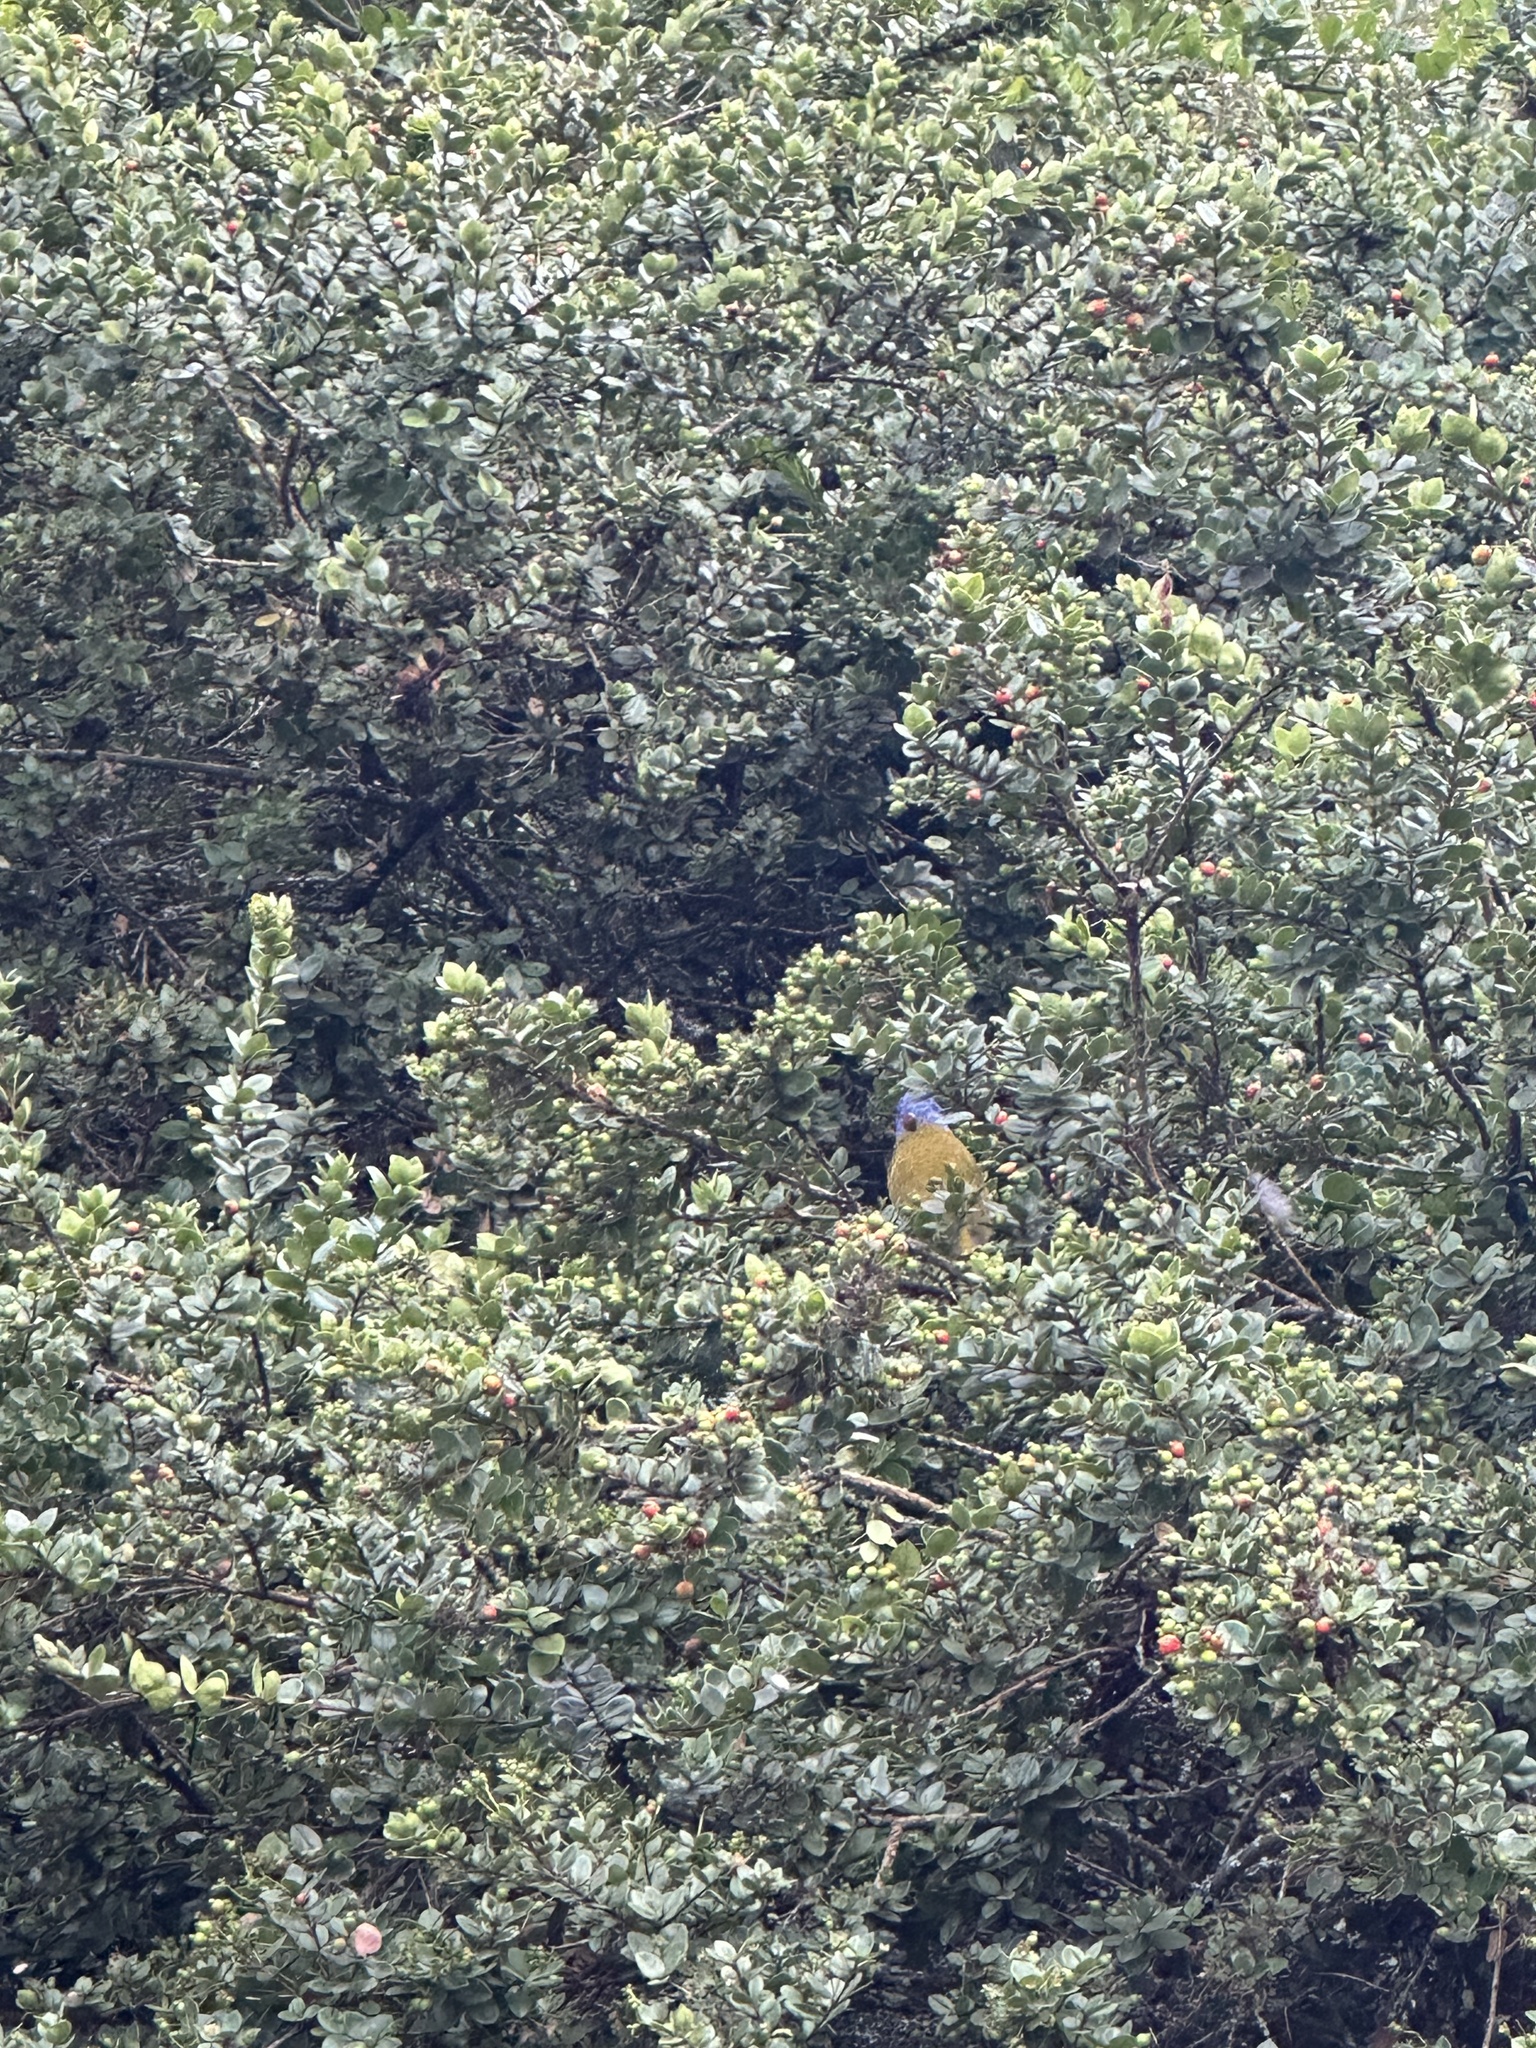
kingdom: Animalia
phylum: Chordata
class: Aves
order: Passeriformes
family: Thraupidae
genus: Sporathraupis
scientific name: Sporathraupis cyanocephala
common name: Blue-capped tanager
